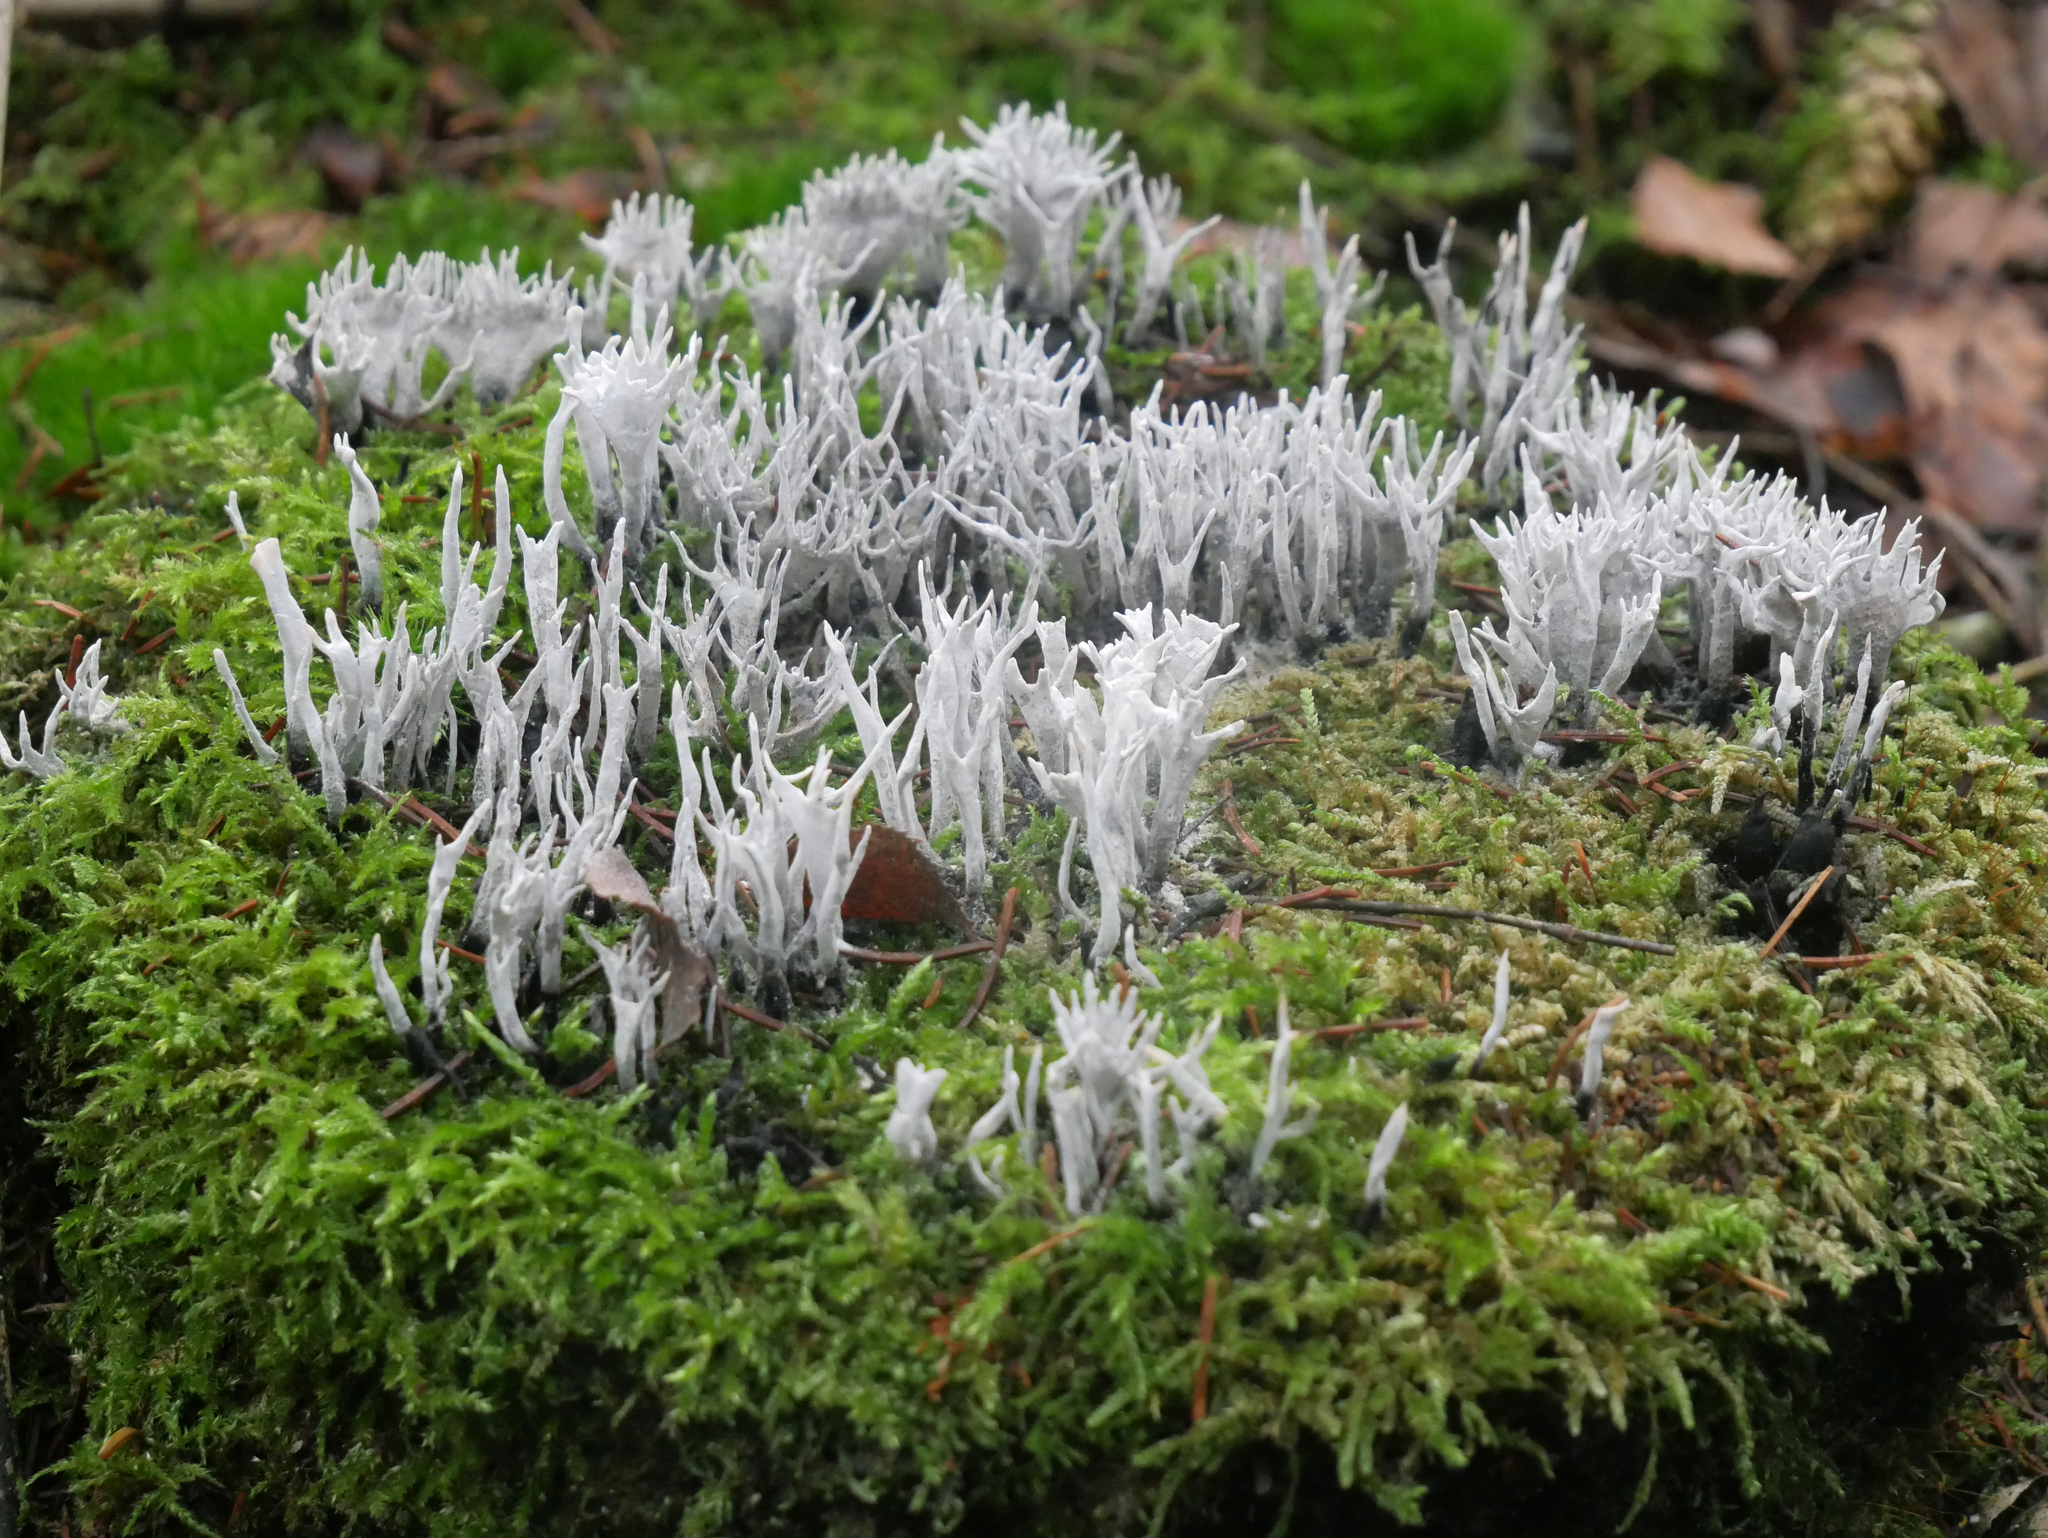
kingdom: Fungi
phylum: Ascomycota
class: Sordariomycetes
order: Xylariales
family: Xylariaceae
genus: Xylaria
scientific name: Xylaria hypoxylon
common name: Candle-snuff fungus
